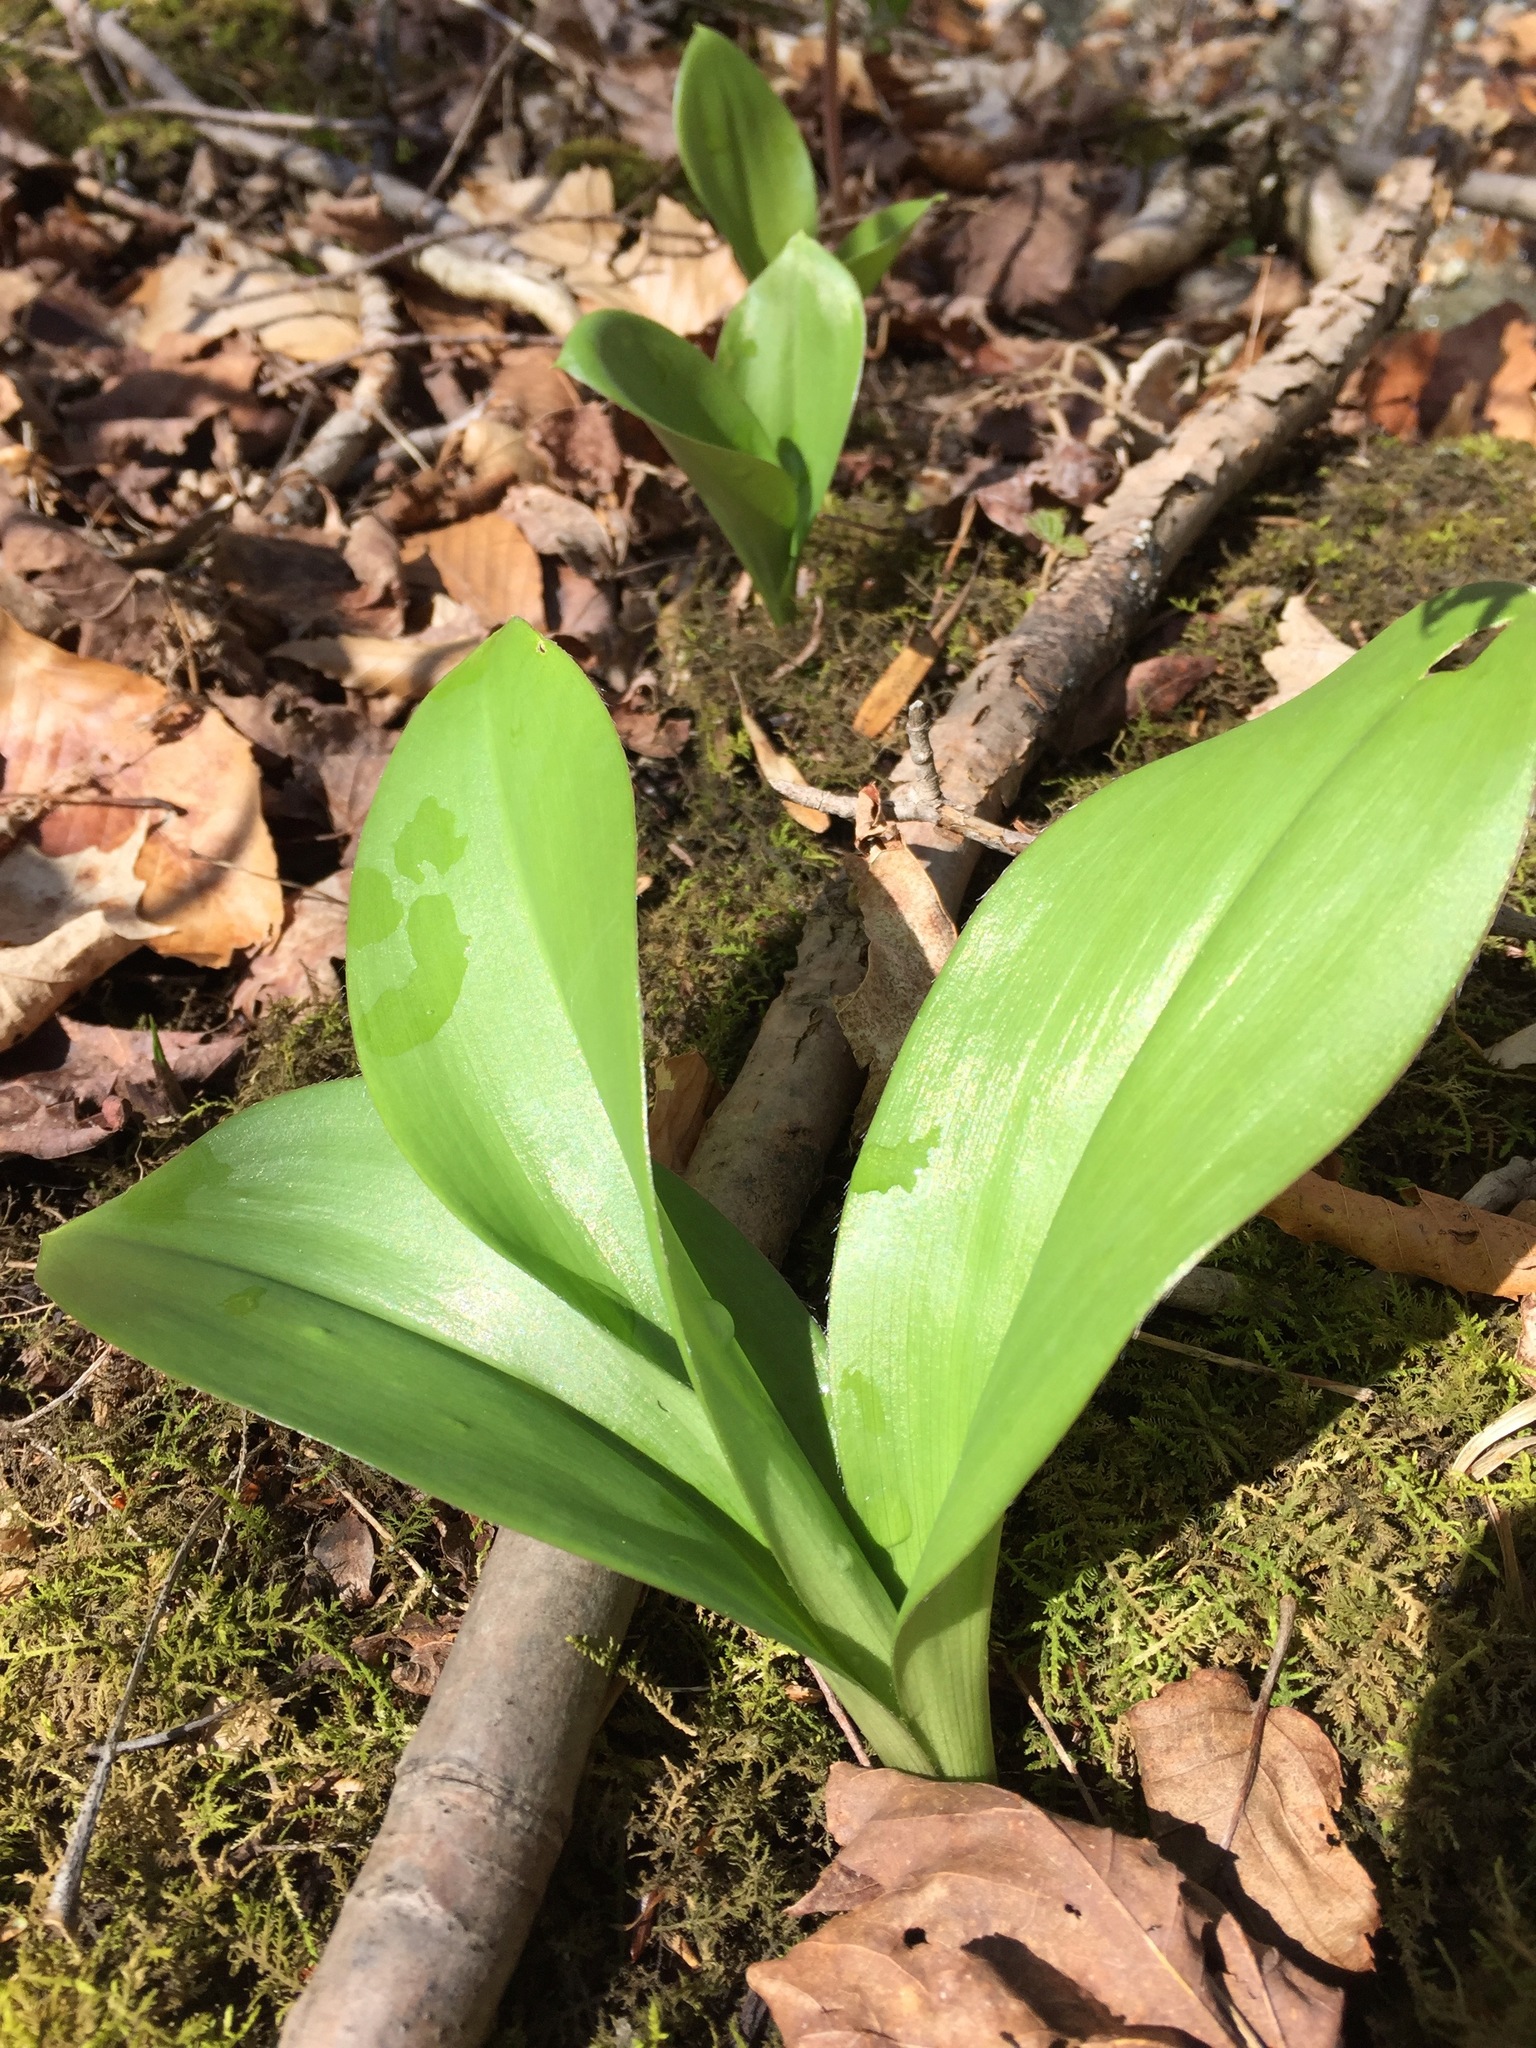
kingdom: Plantae
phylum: Tracheophyta
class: Liliopsida
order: Liliales
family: Liliaceae
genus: Clintonia
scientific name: Clintonia borealis
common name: Yellow clintonia
